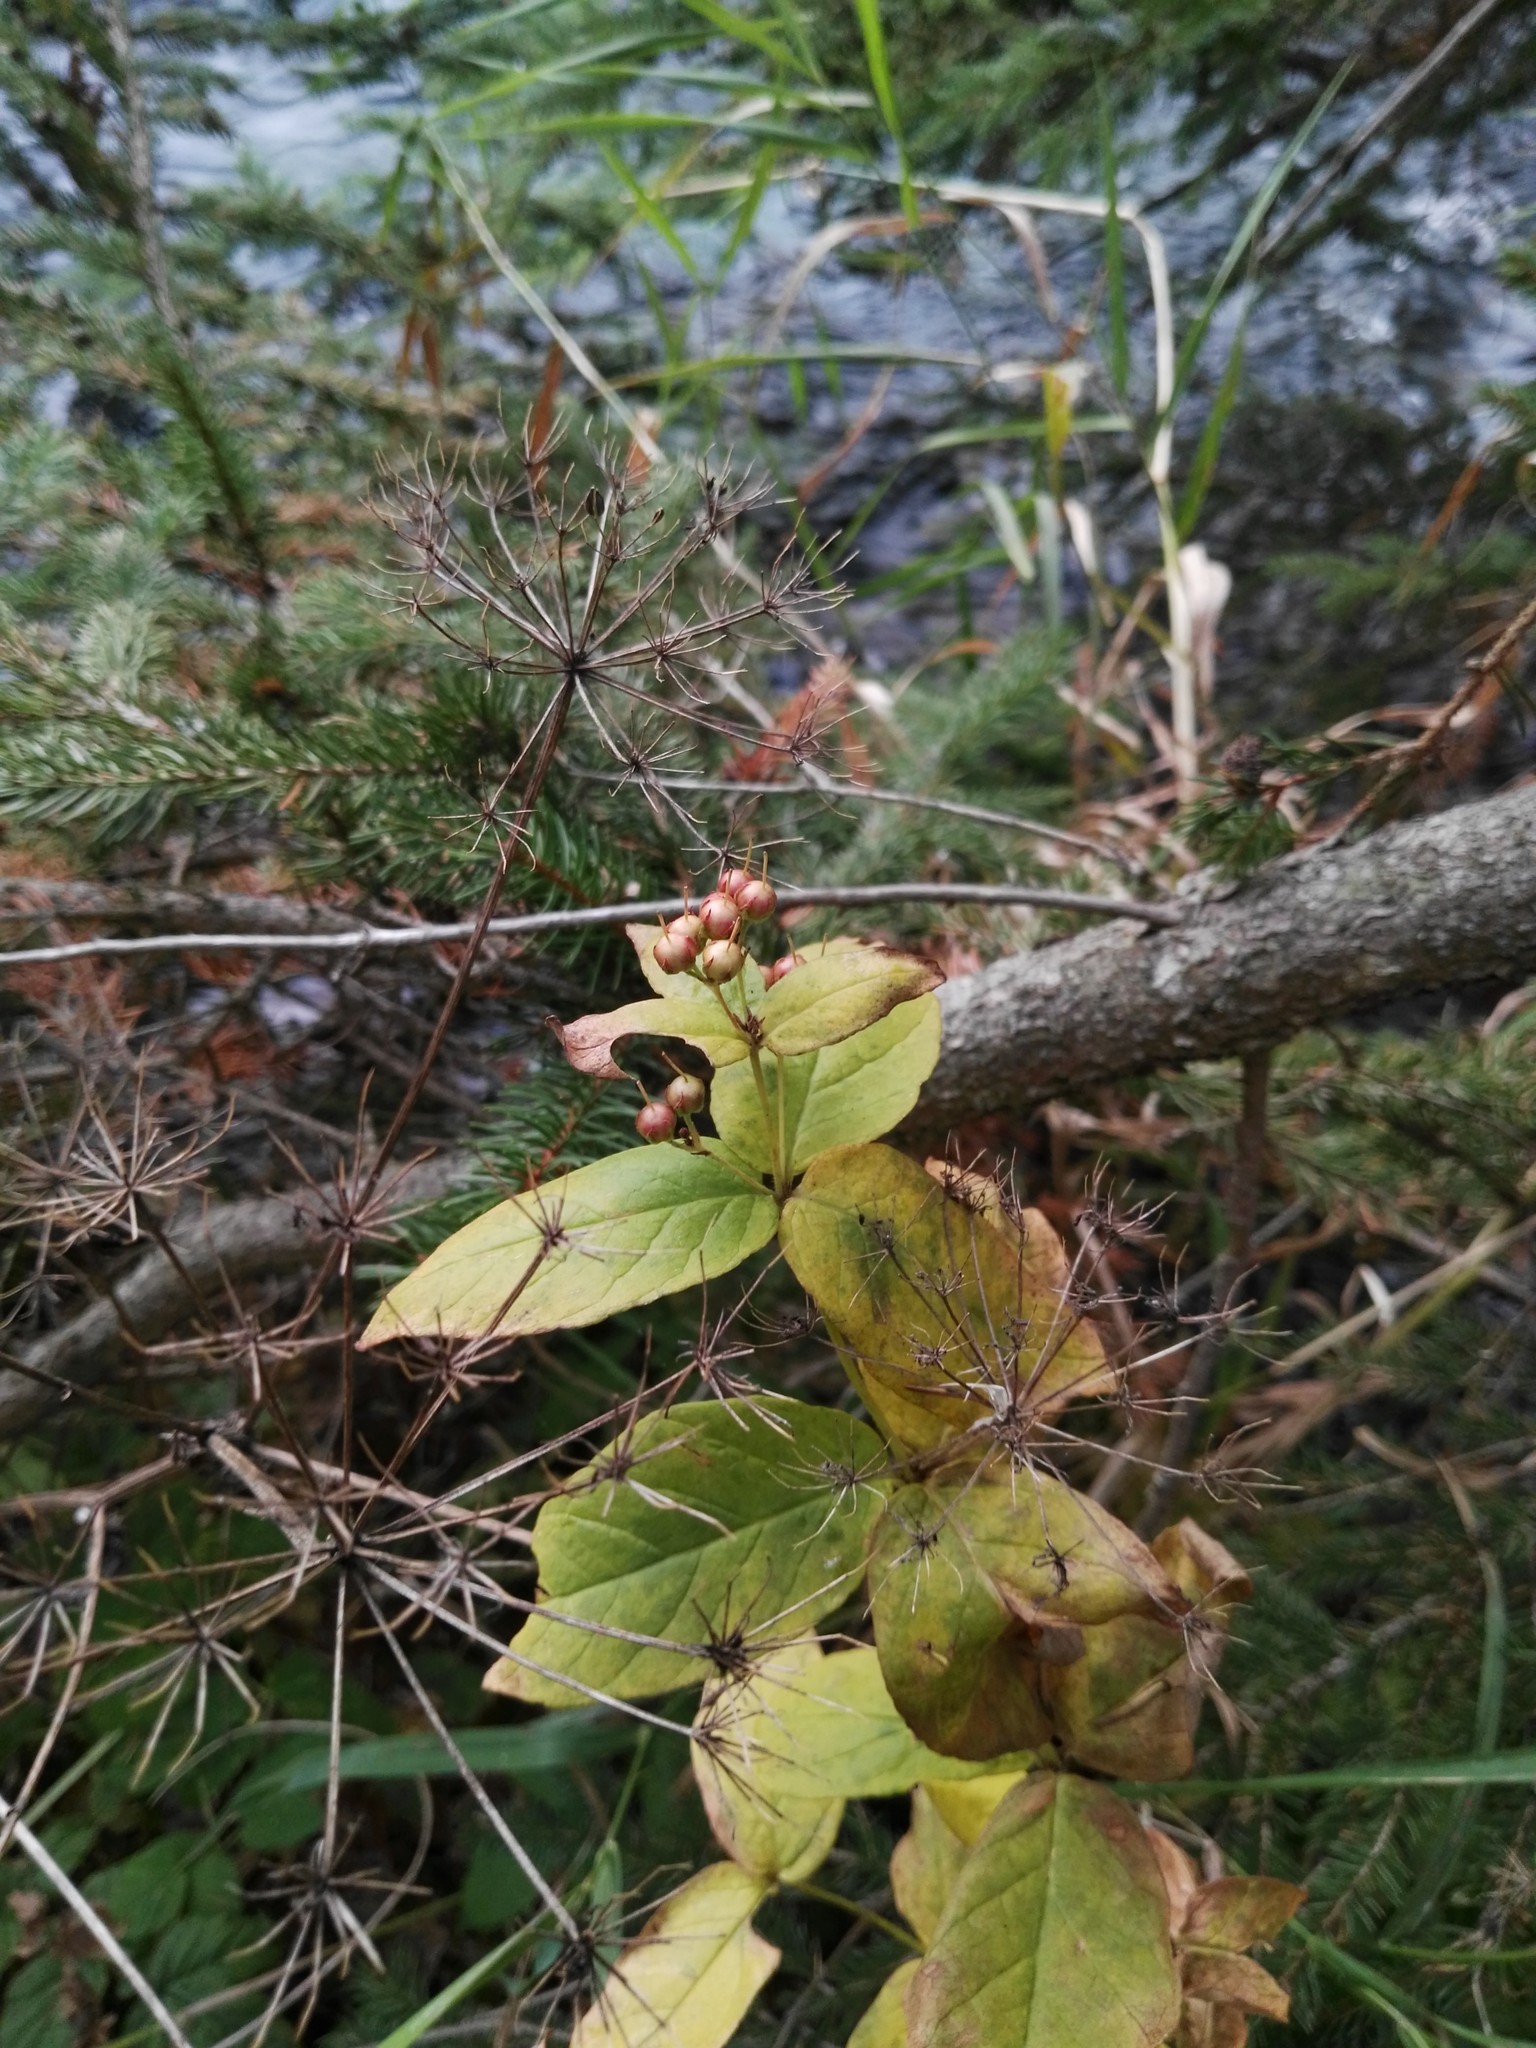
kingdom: Plantae
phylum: Tracheophyta
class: Magnoliopsida
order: Ericales
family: Primulaceae
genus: Lysimachia
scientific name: Lysimachia vulgaris
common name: Yellow loosestrife
